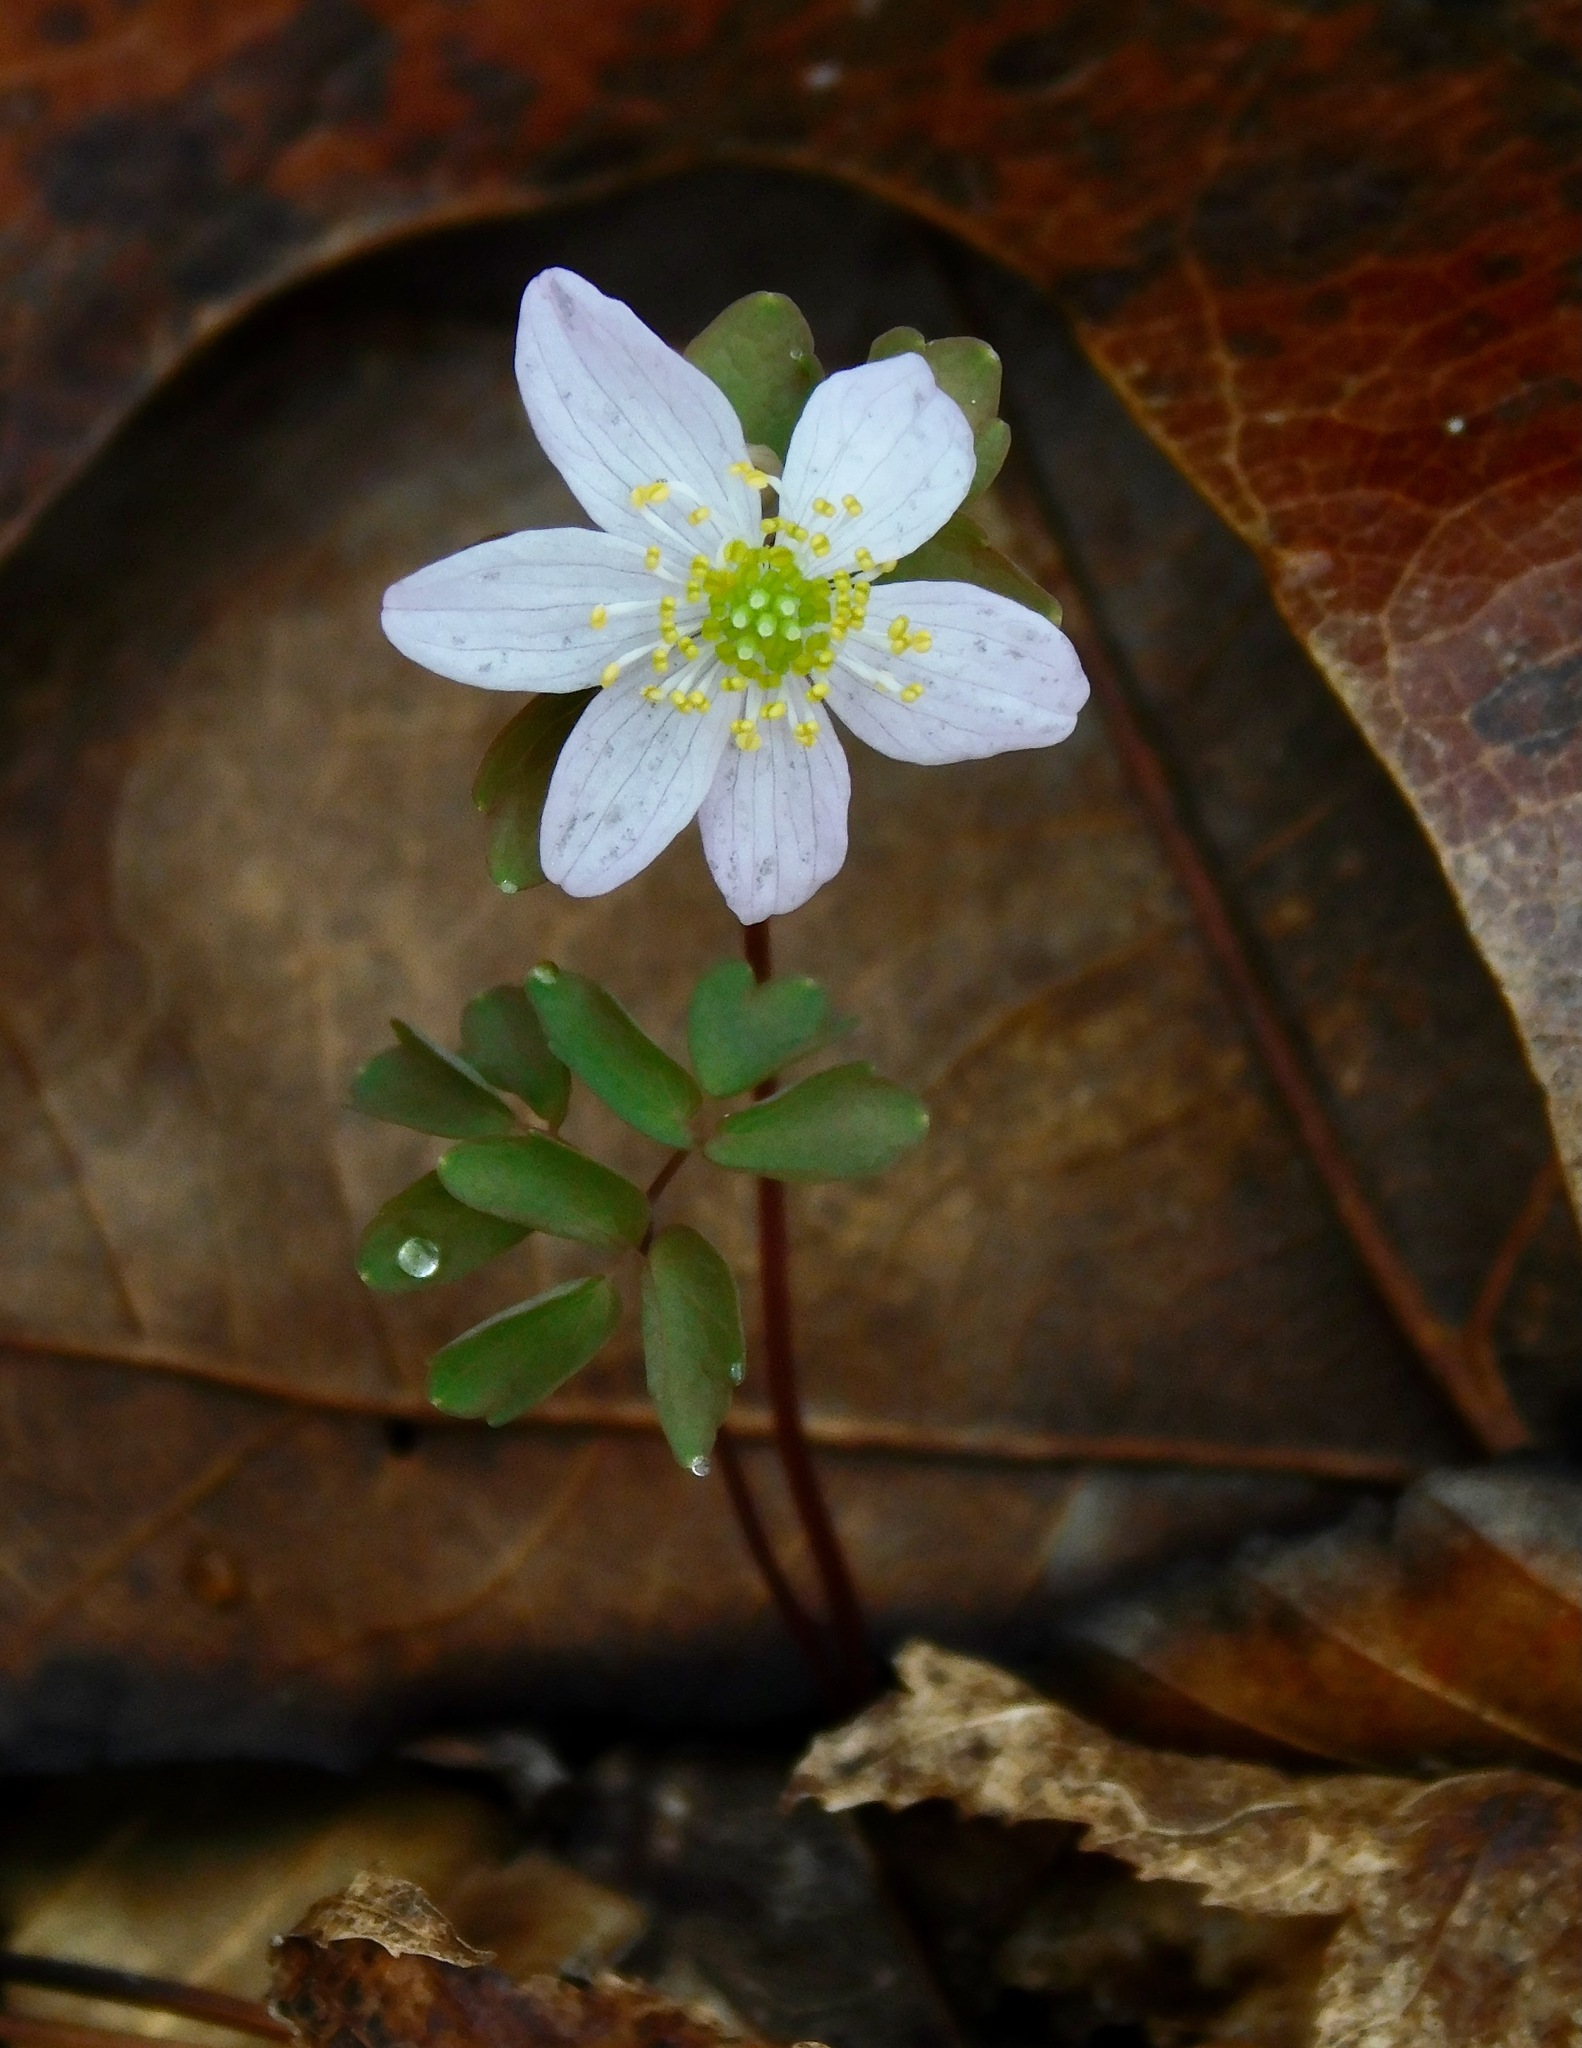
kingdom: Plantae
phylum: Tracheophyta
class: Magnoliopsida
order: Ranunculales
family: Ranunculaceae
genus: Thalictrum
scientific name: Thalictrum thalictroides
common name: Rue-anemone
